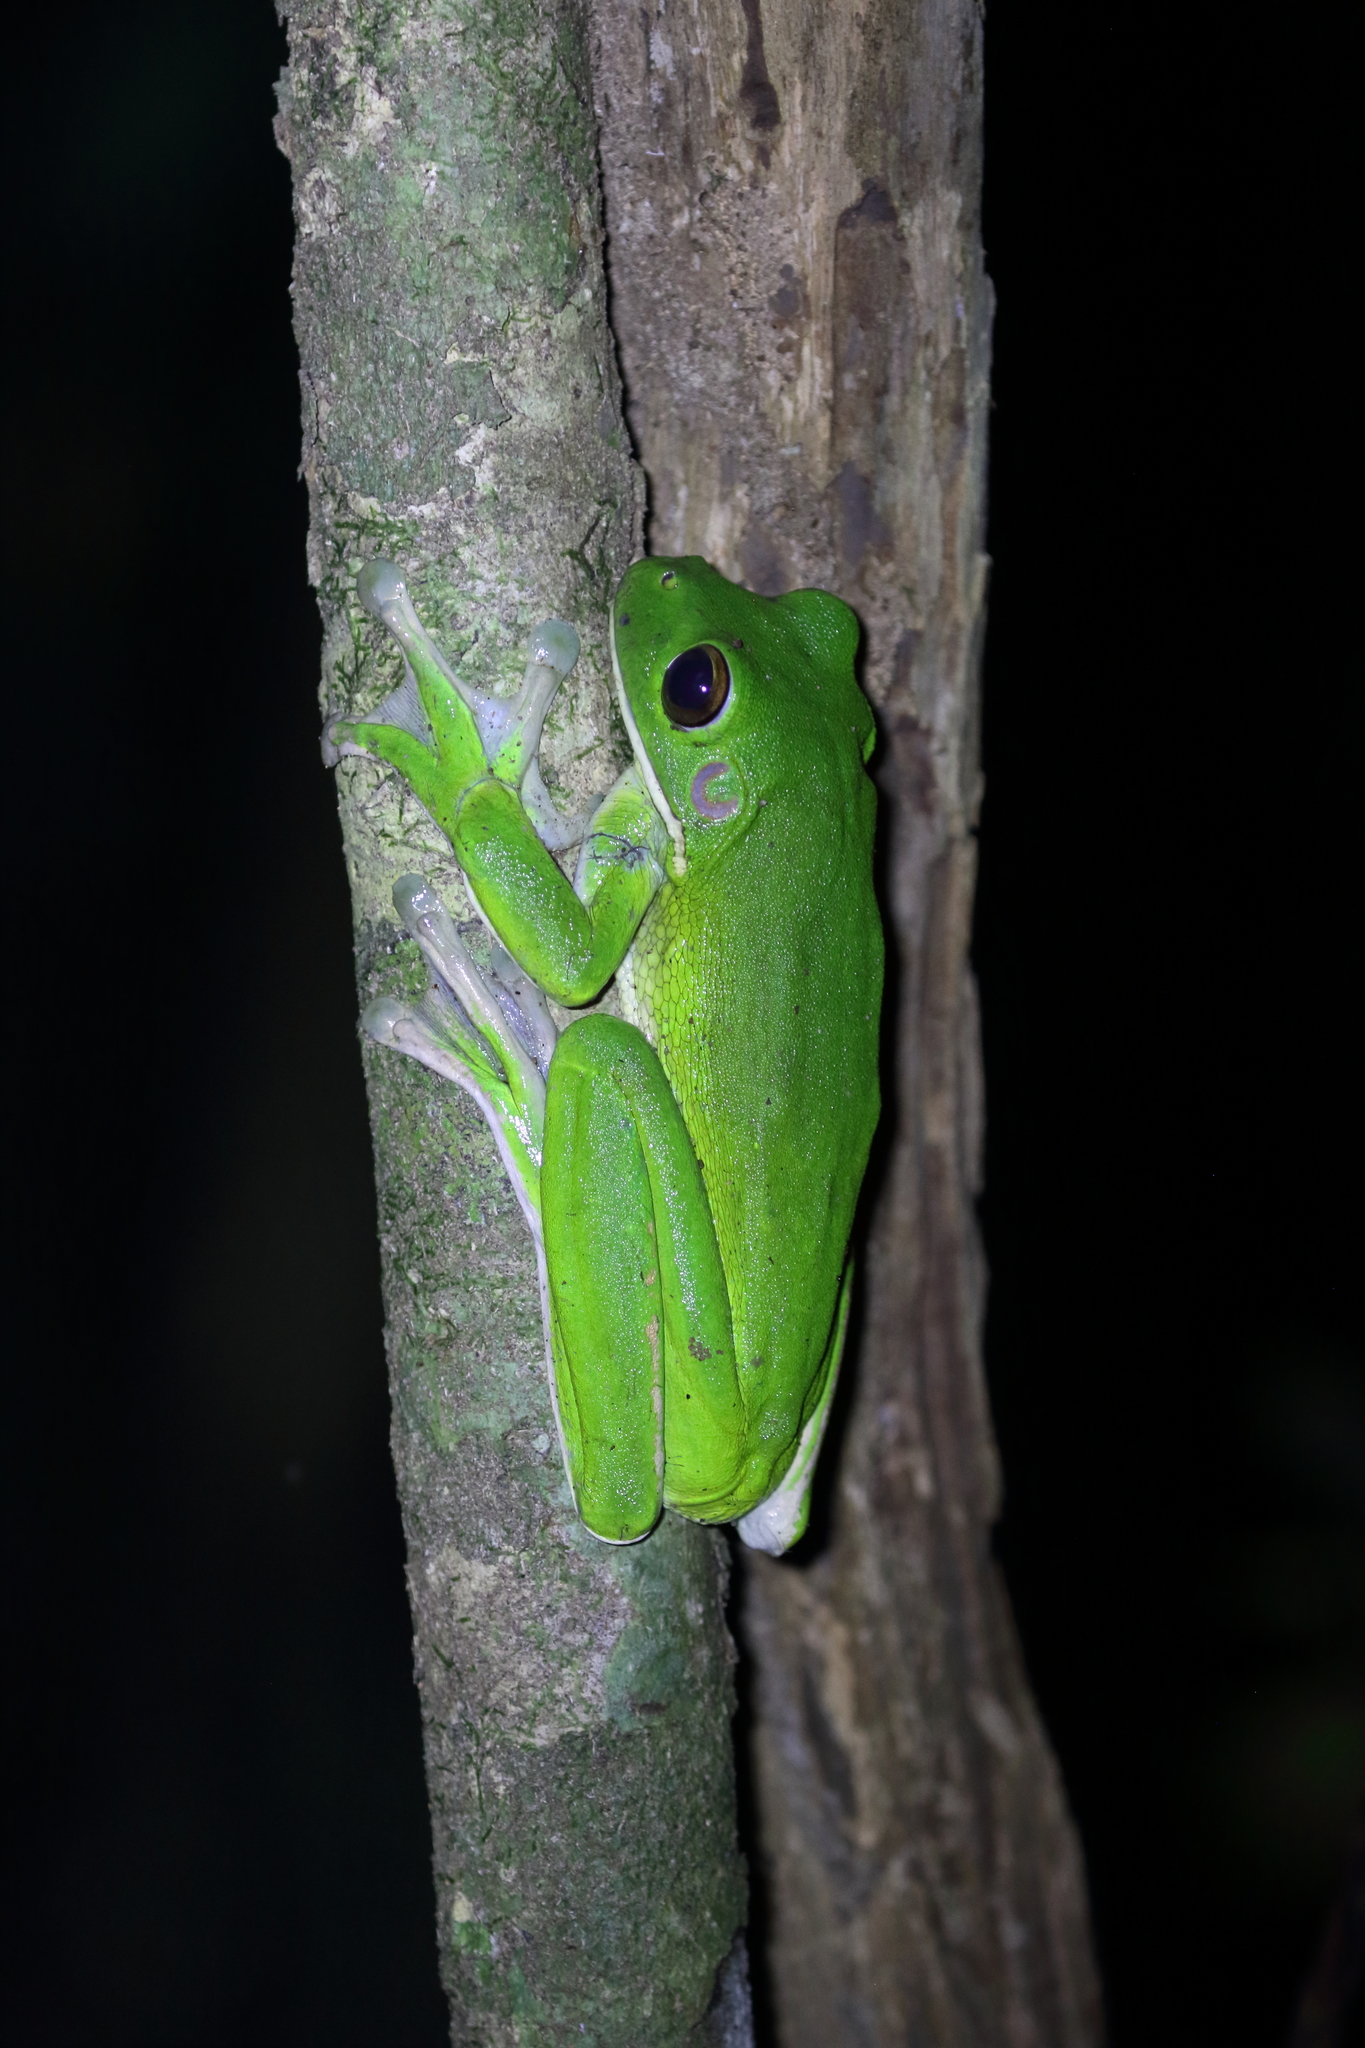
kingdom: Animalia
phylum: Chordata
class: Amphibia
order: Anura
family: Pelodryadidae
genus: Nyctimystes
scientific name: Nyctimystes infrafrenatus
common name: Australian giant treefrog
